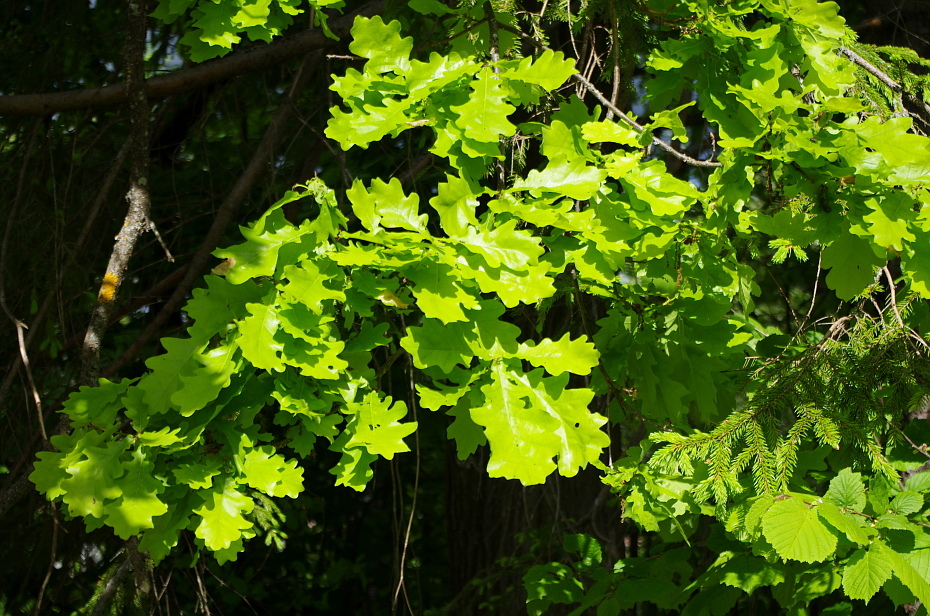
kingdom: Plantae
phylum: Tracheophyta
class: Magnoliopsida
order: Fagales
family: Fagaceae
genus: Quercus
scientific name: Quercus robur
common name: Pedunculate oak
